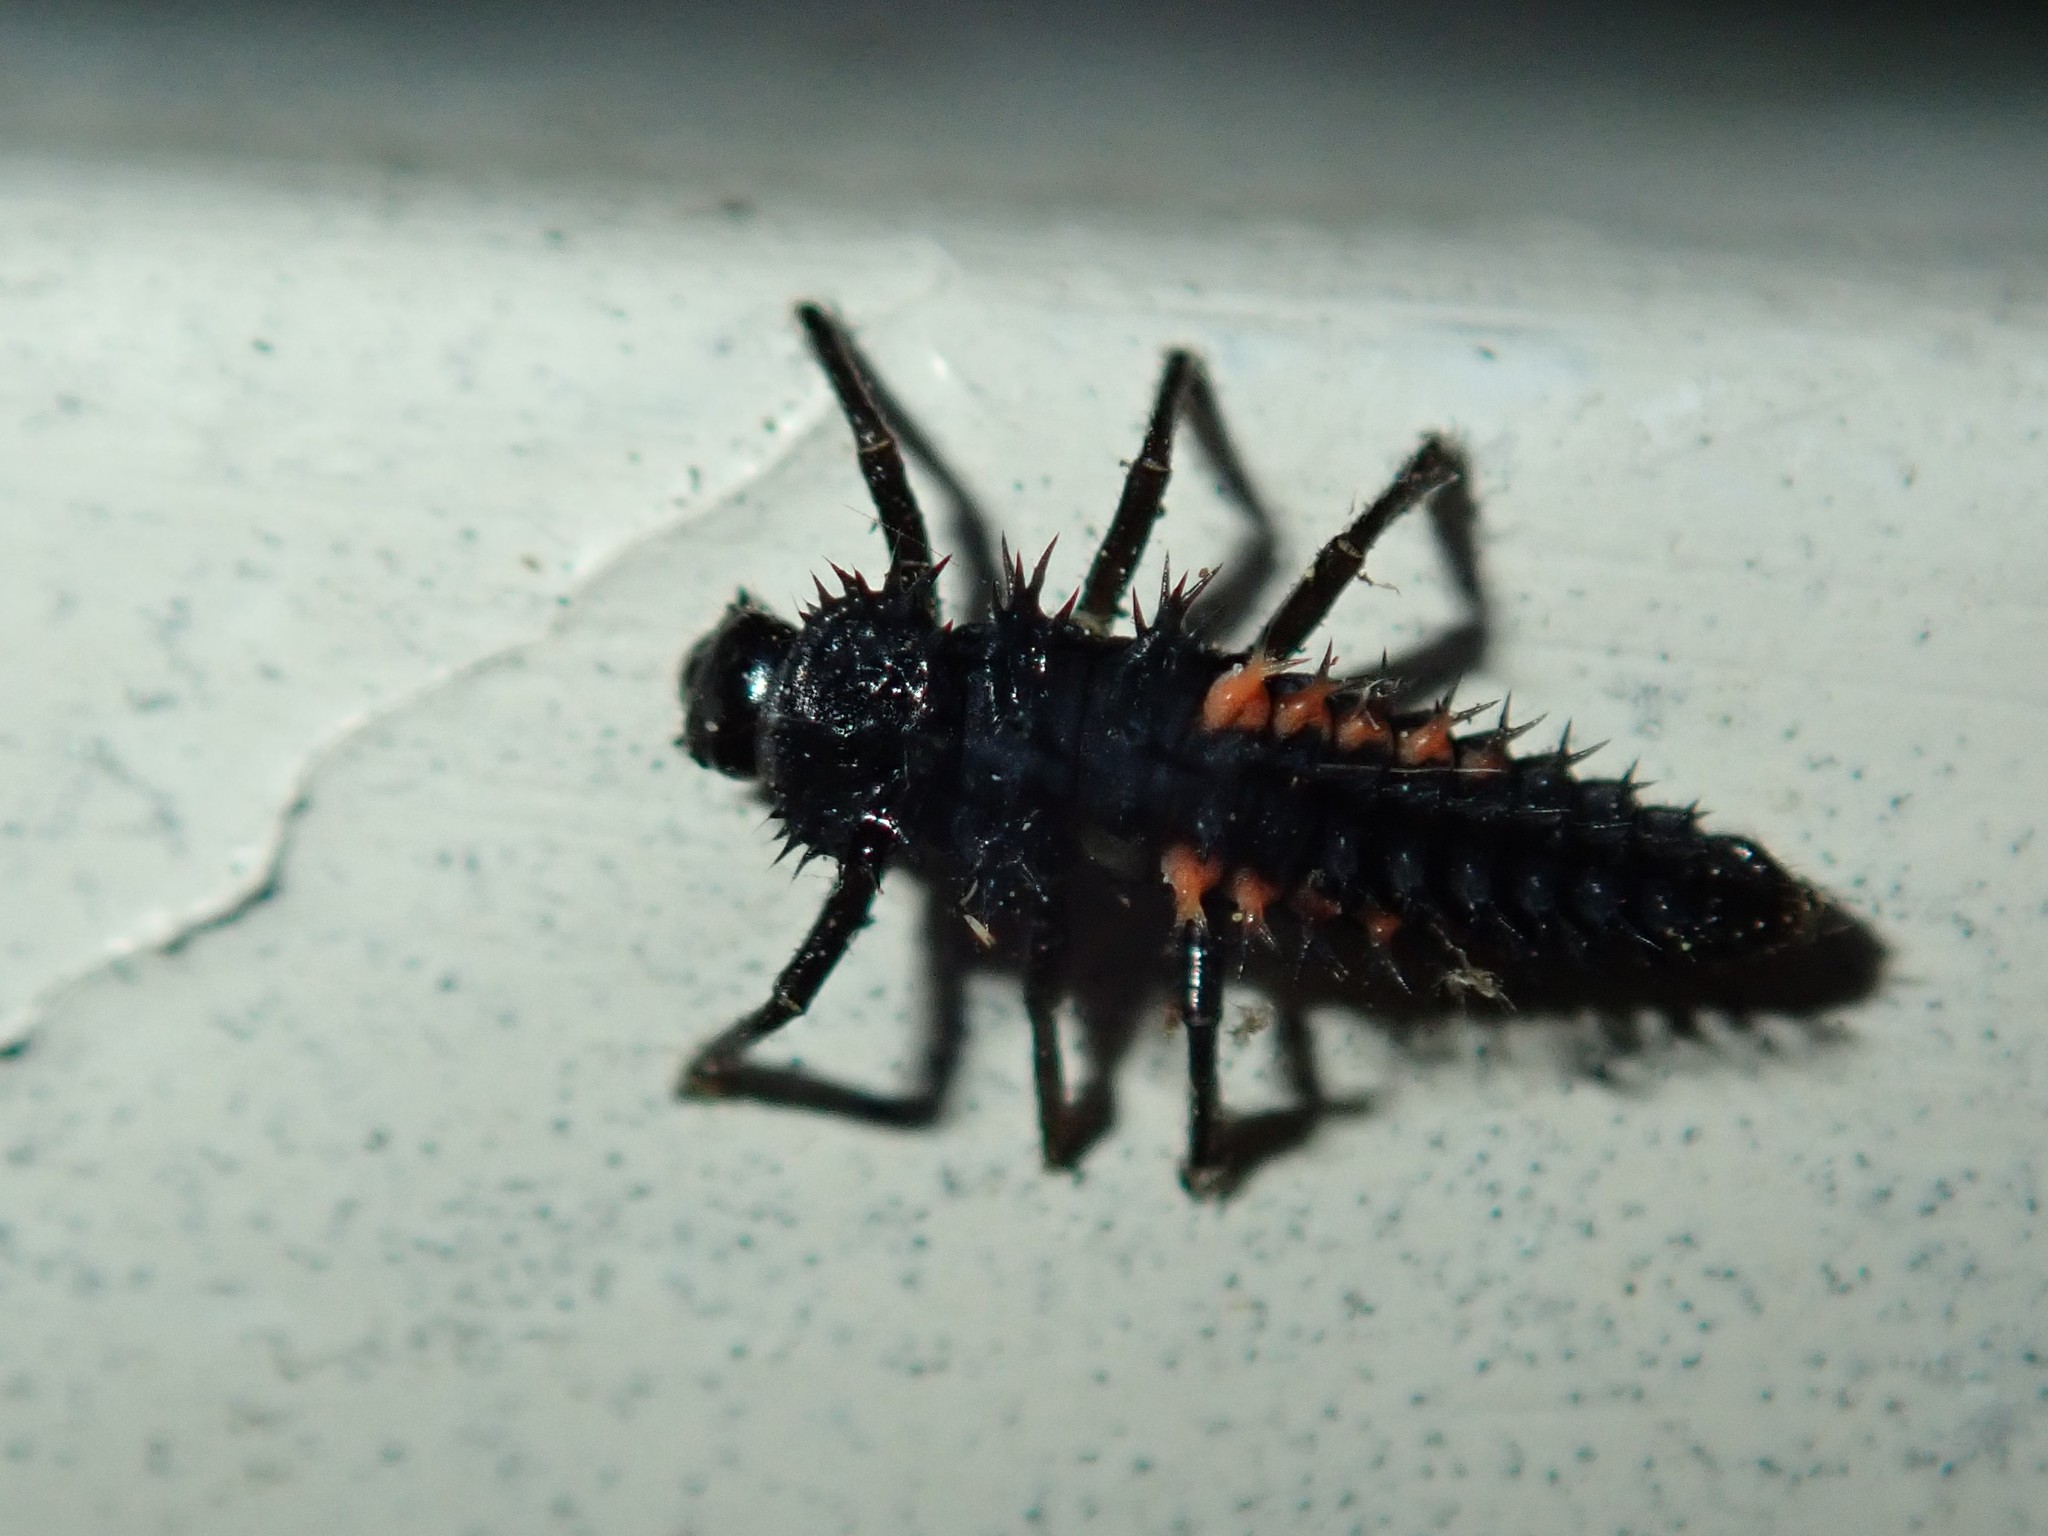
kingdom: Animalia
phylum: Arthropoda
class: Insecta
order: Coleoptera
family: Coccinellidae
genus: Harmonia
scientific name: Harmonia axyridis
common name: Harlequin ladybird
